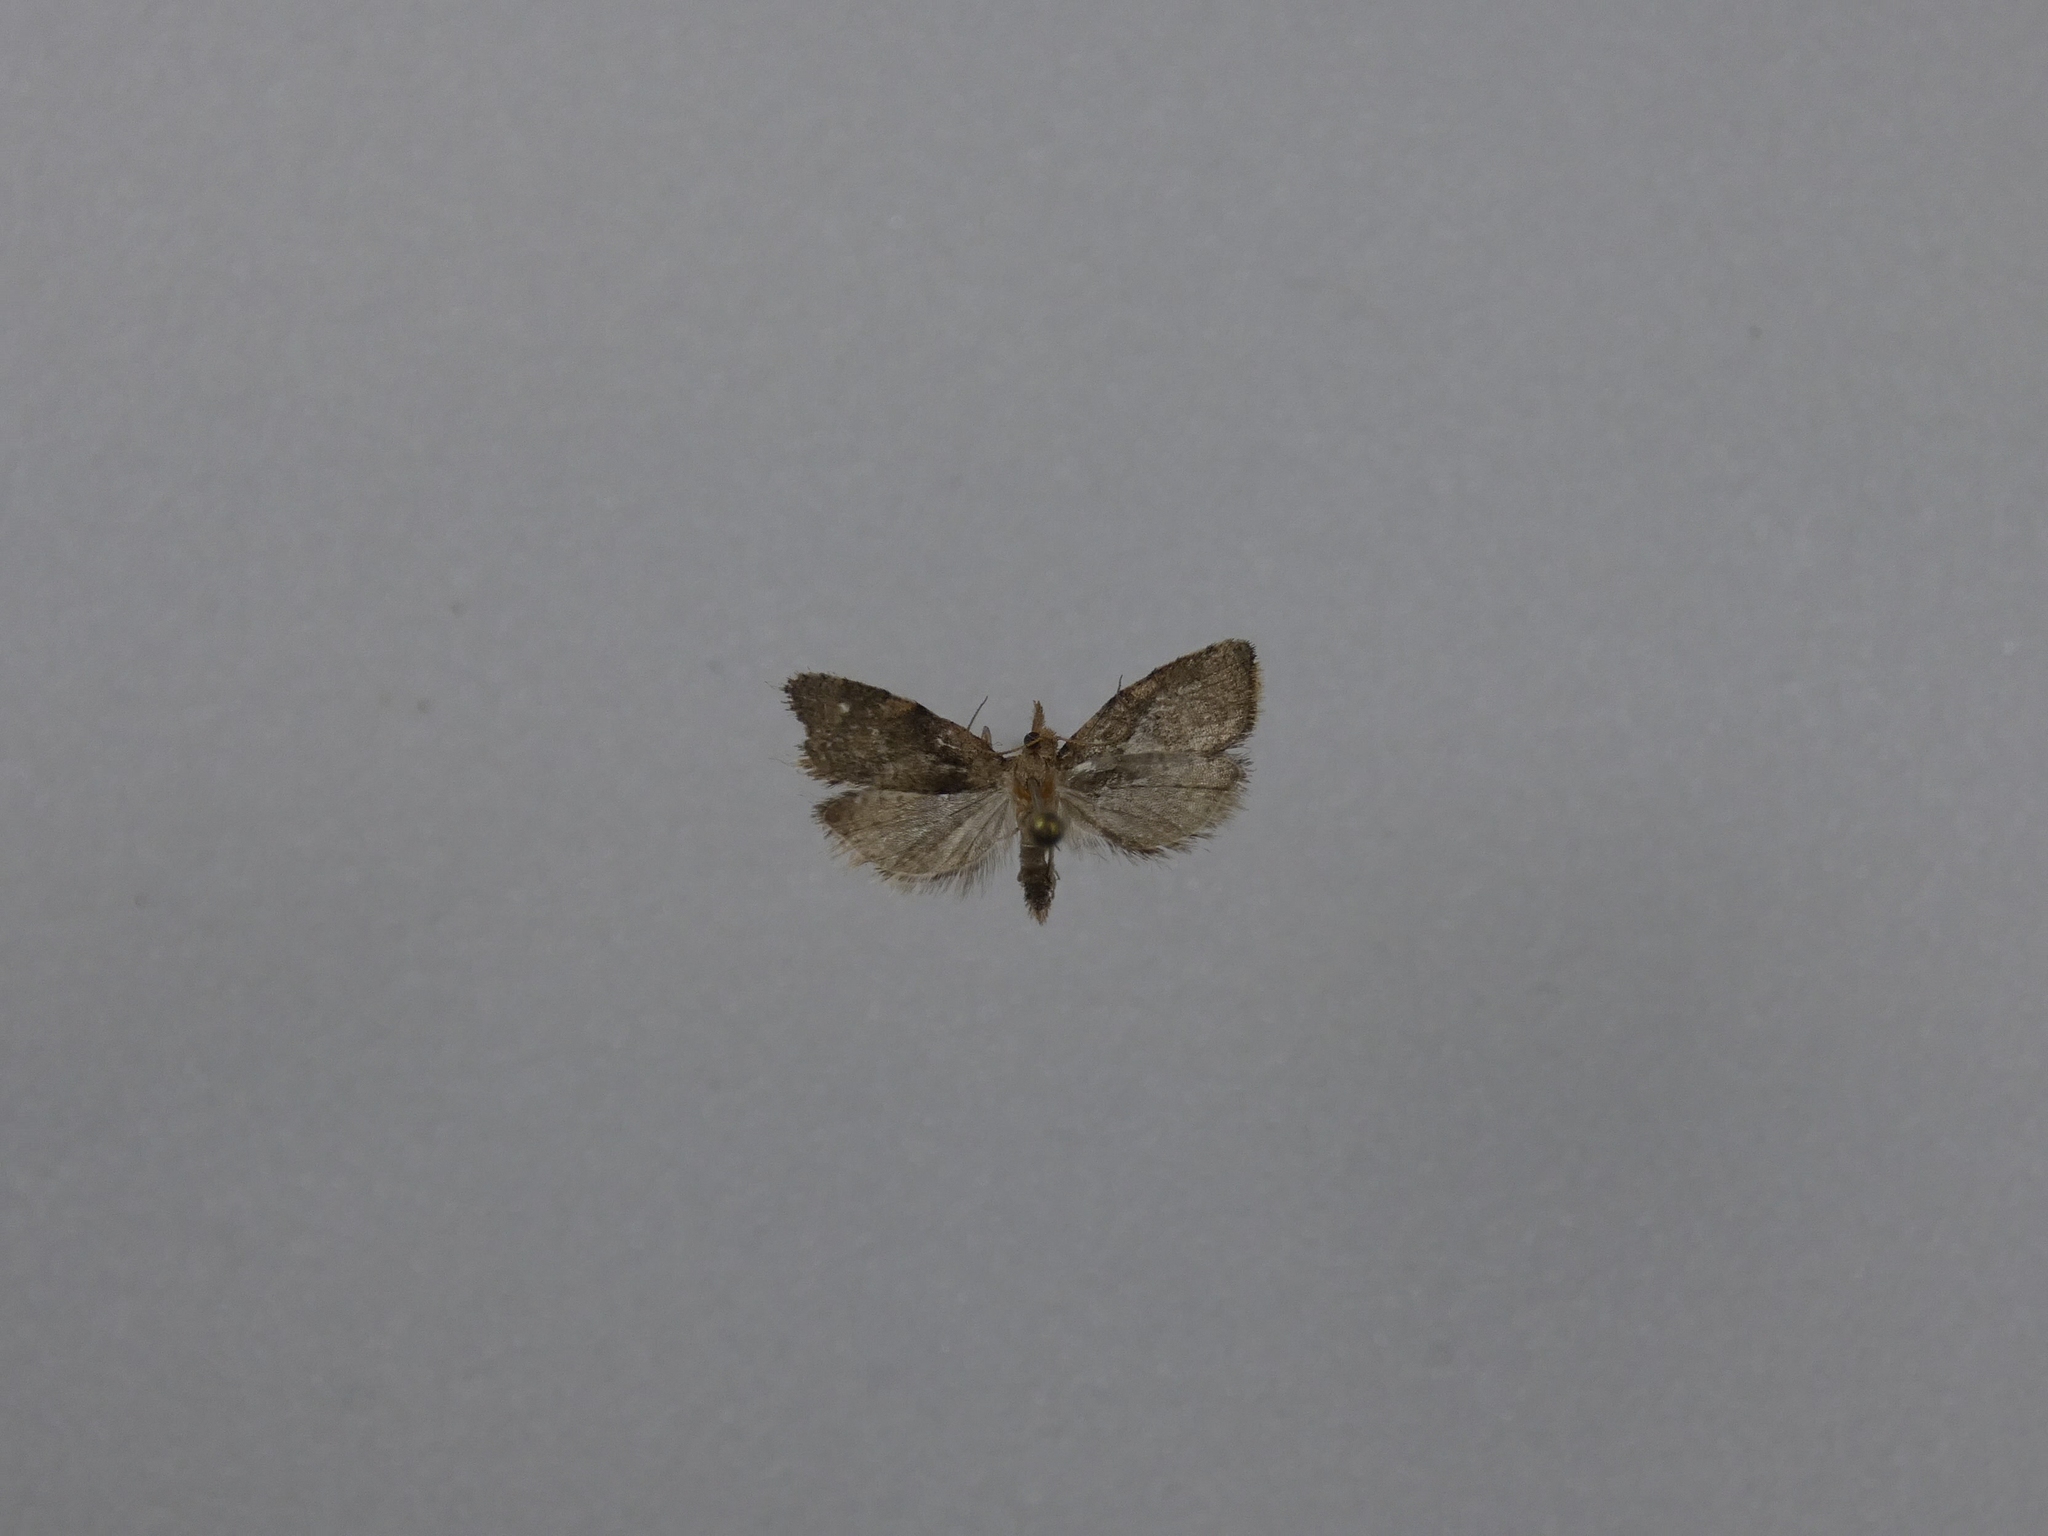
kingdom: Animalia
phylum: Arthropoda
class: Insecta
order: Lepidoptera
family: Tortricidae
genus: Capua
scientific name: Capua intractana
